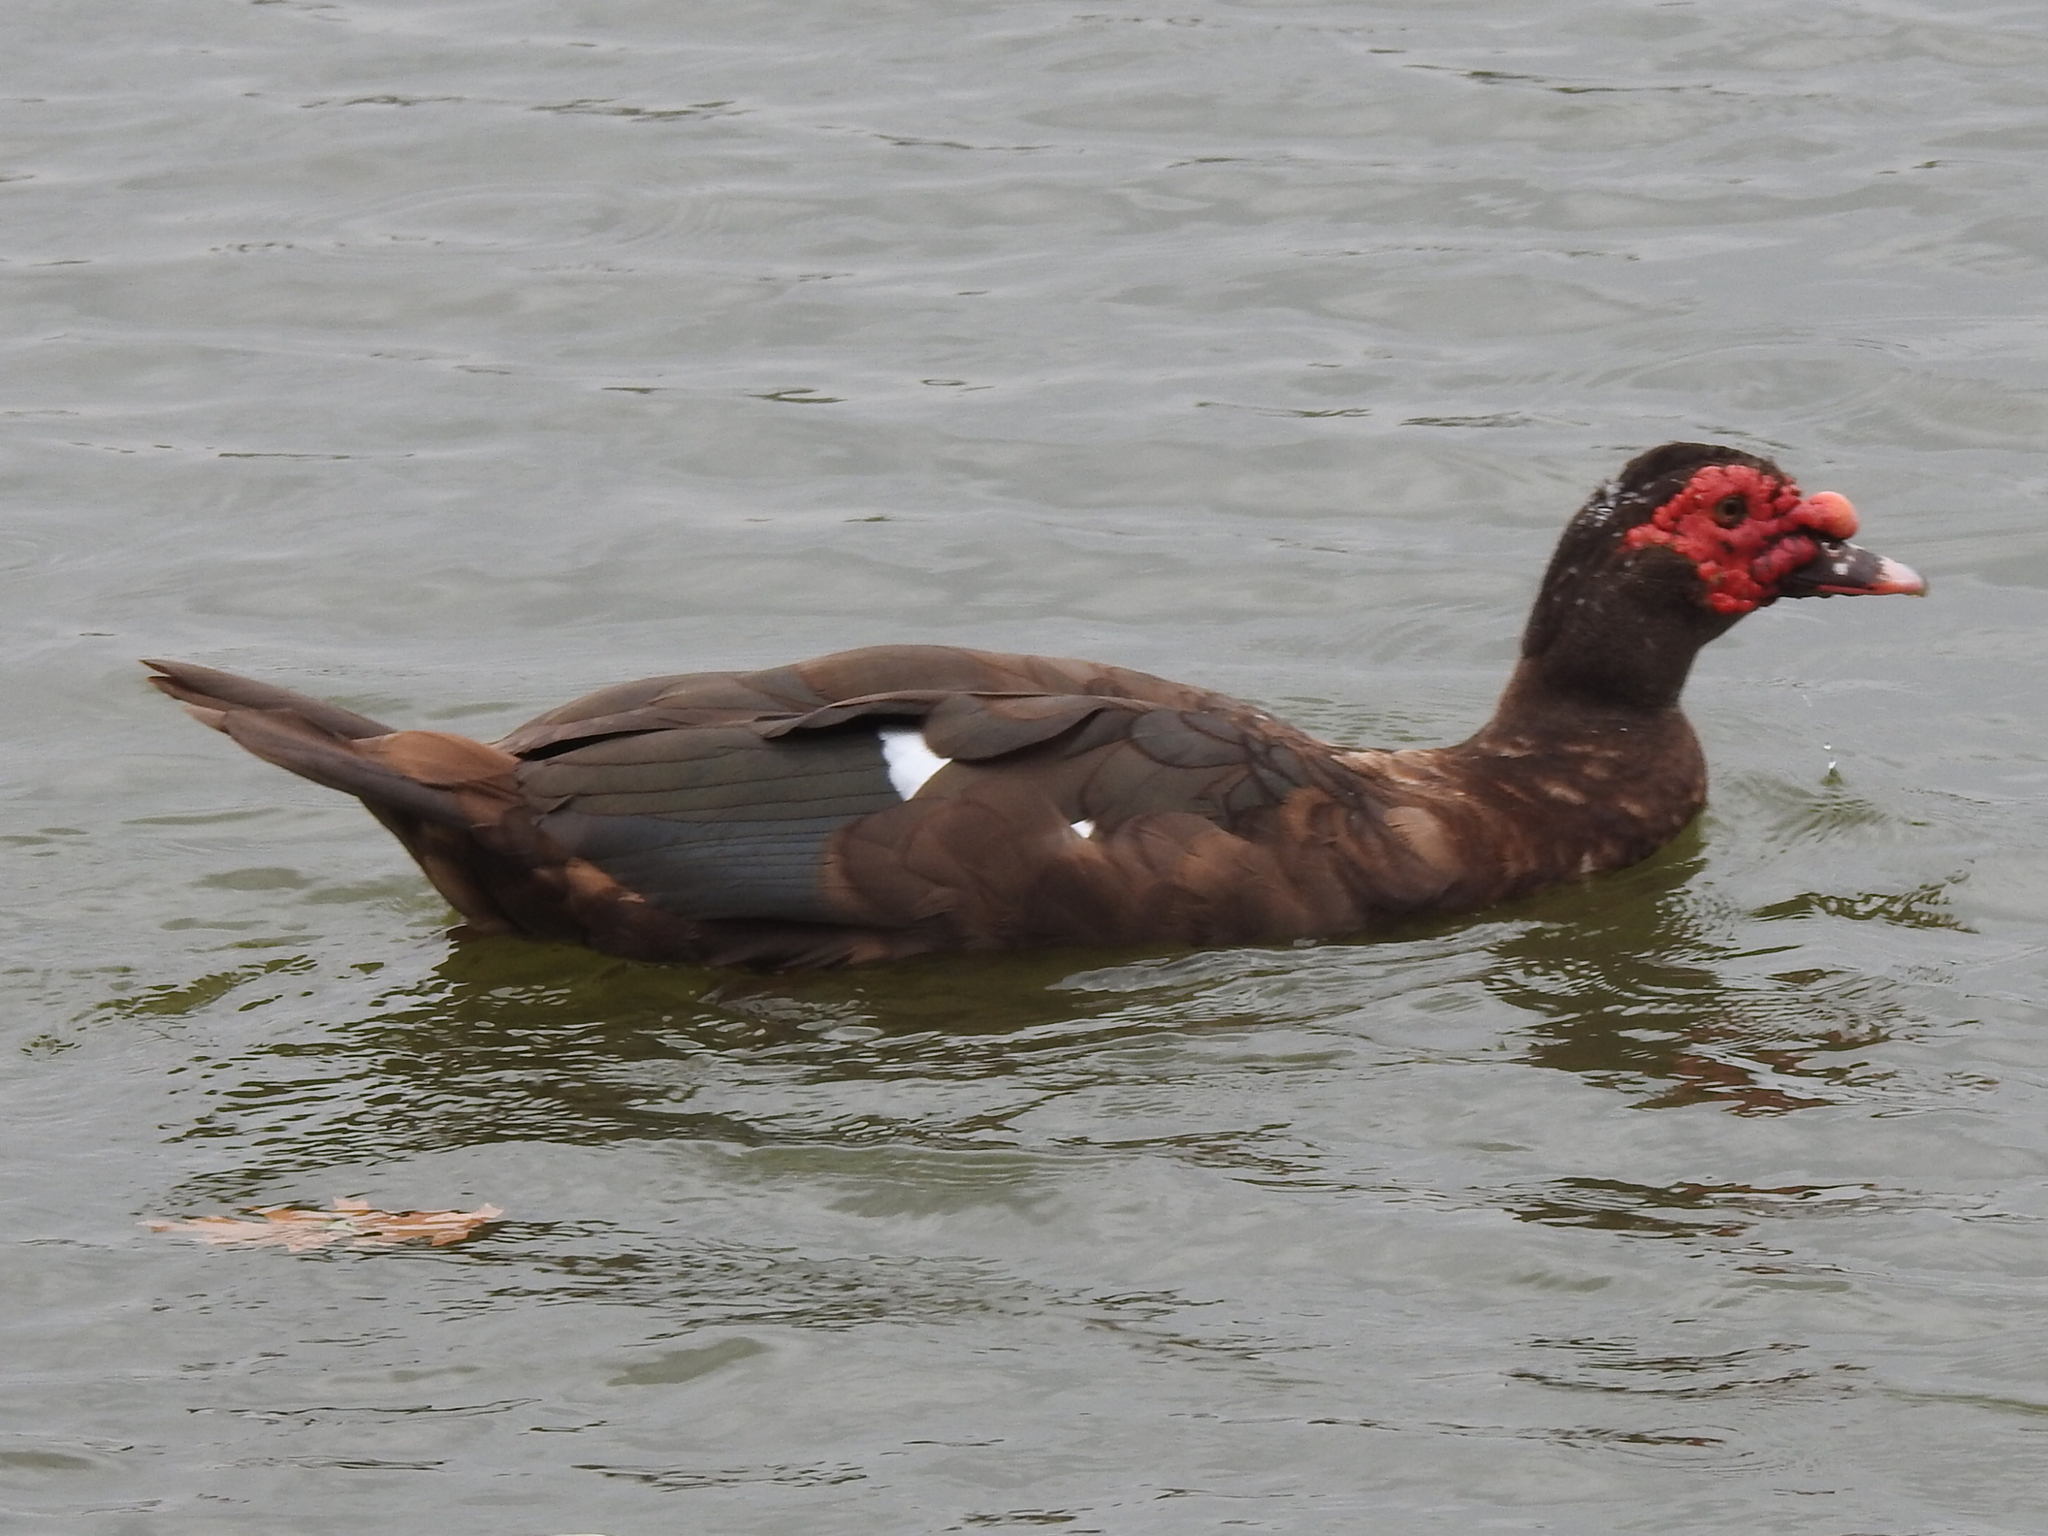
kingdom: Animalia
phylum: Chordata
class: Aves
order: Anseriformes
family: Anatidae
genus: Cairina
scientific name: Cairina moschata
